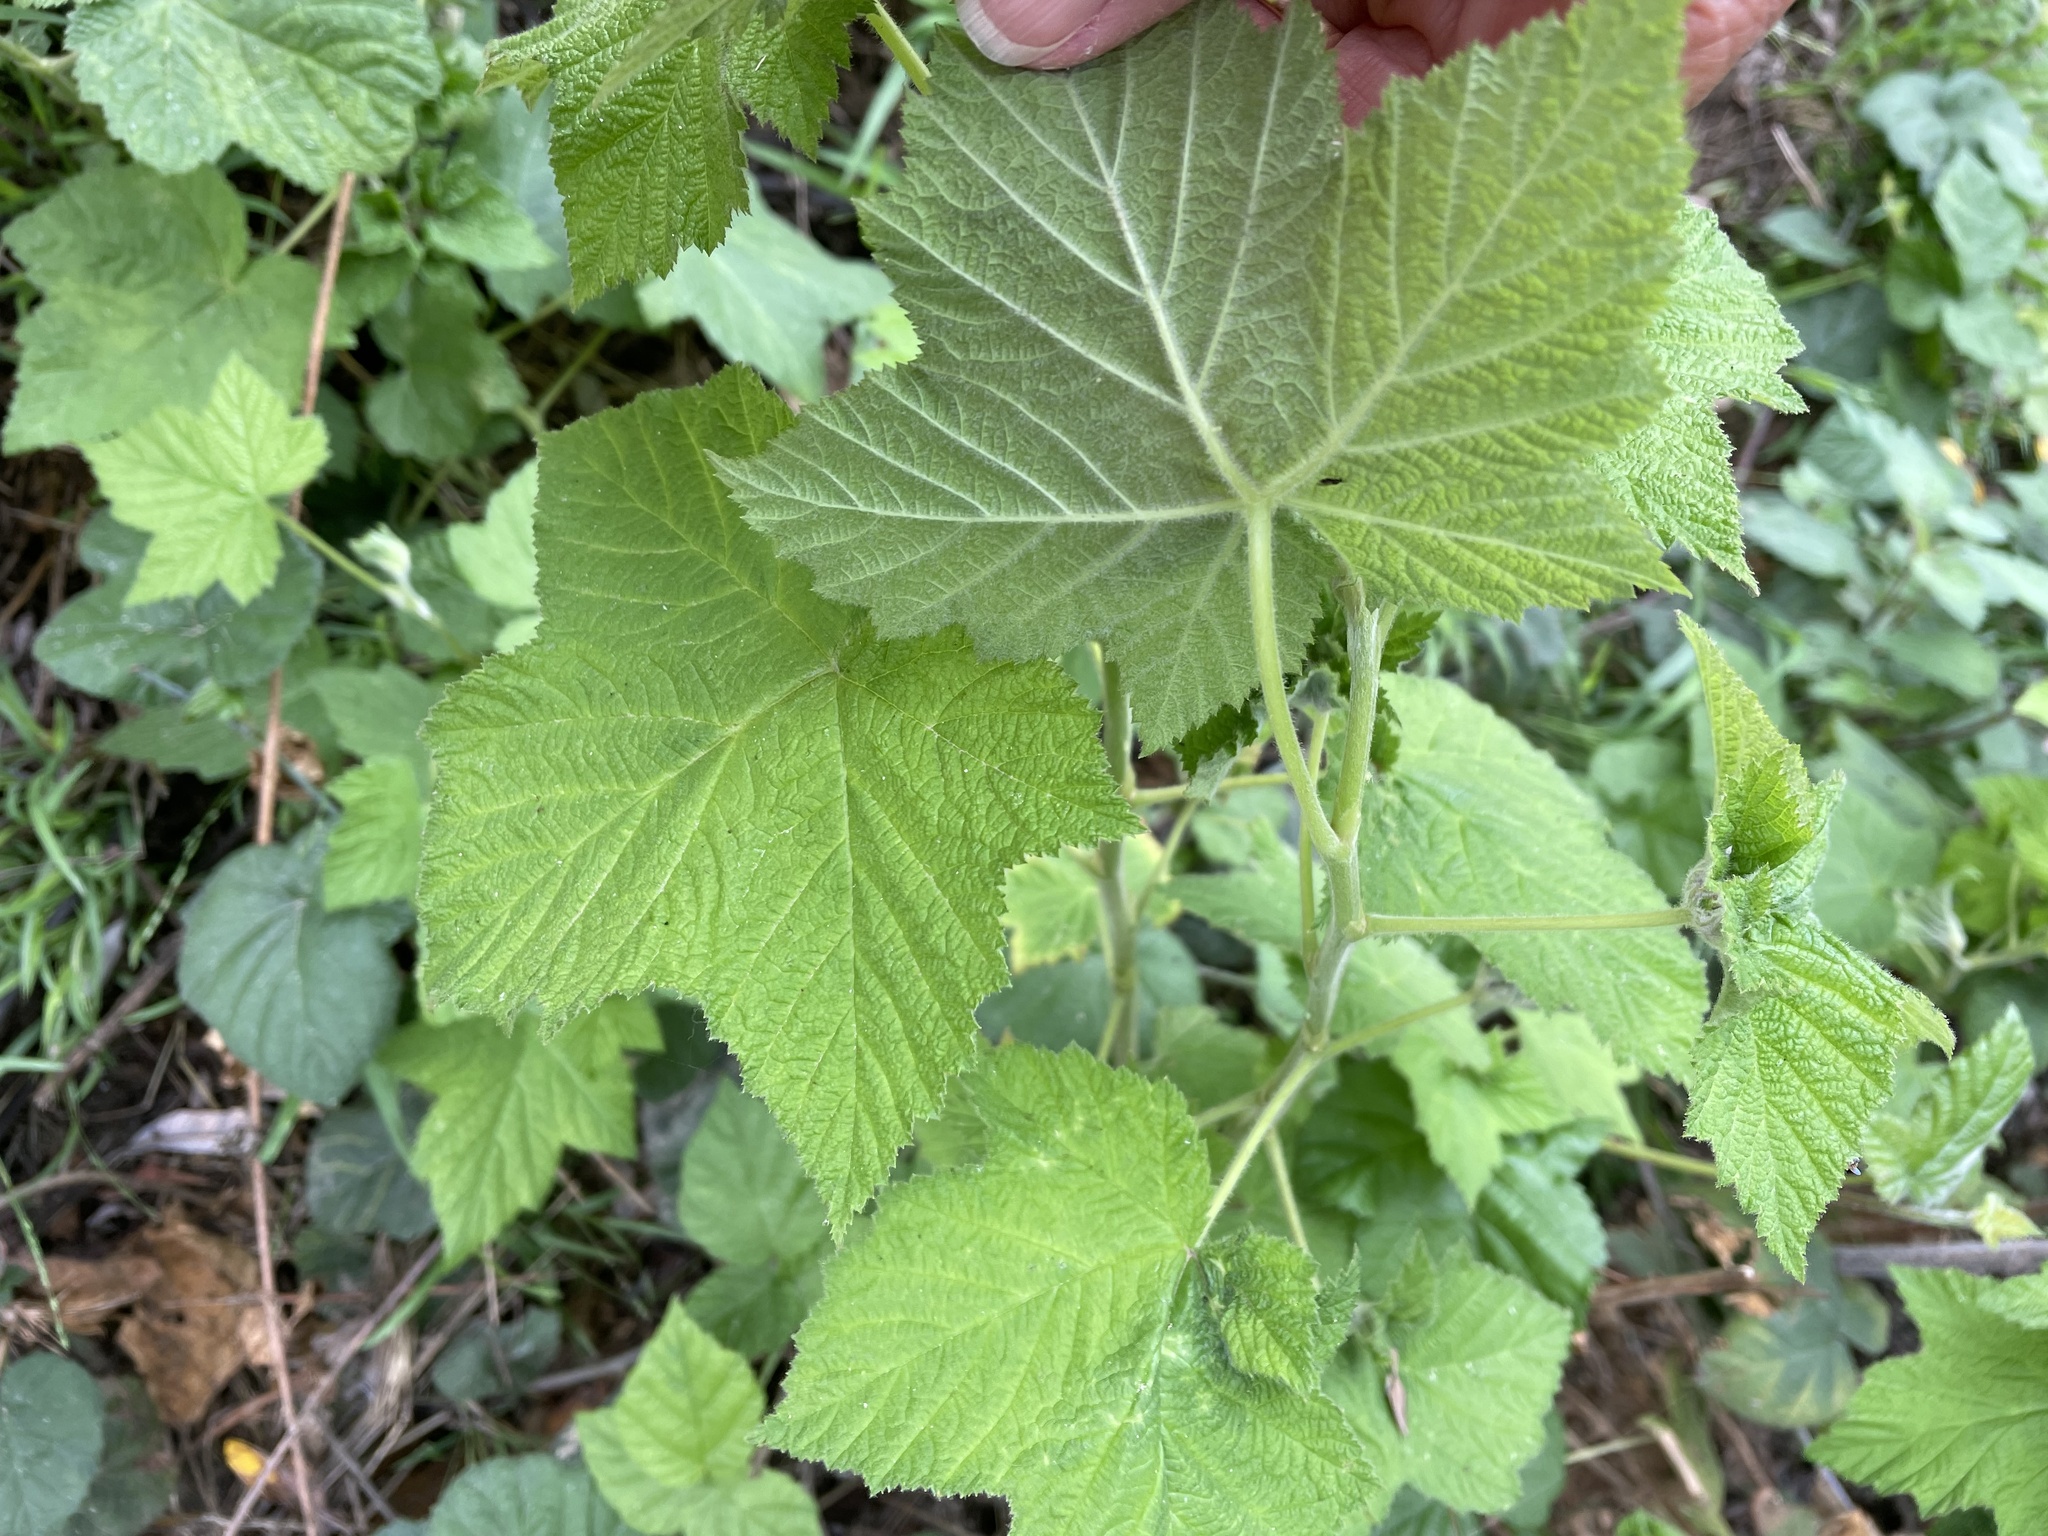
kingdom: Plantae
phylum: Tracheophyta
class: Magnoliopsida
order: Rosales
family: Rosaceae
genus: Rubus
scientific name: Rubus parviflorus
